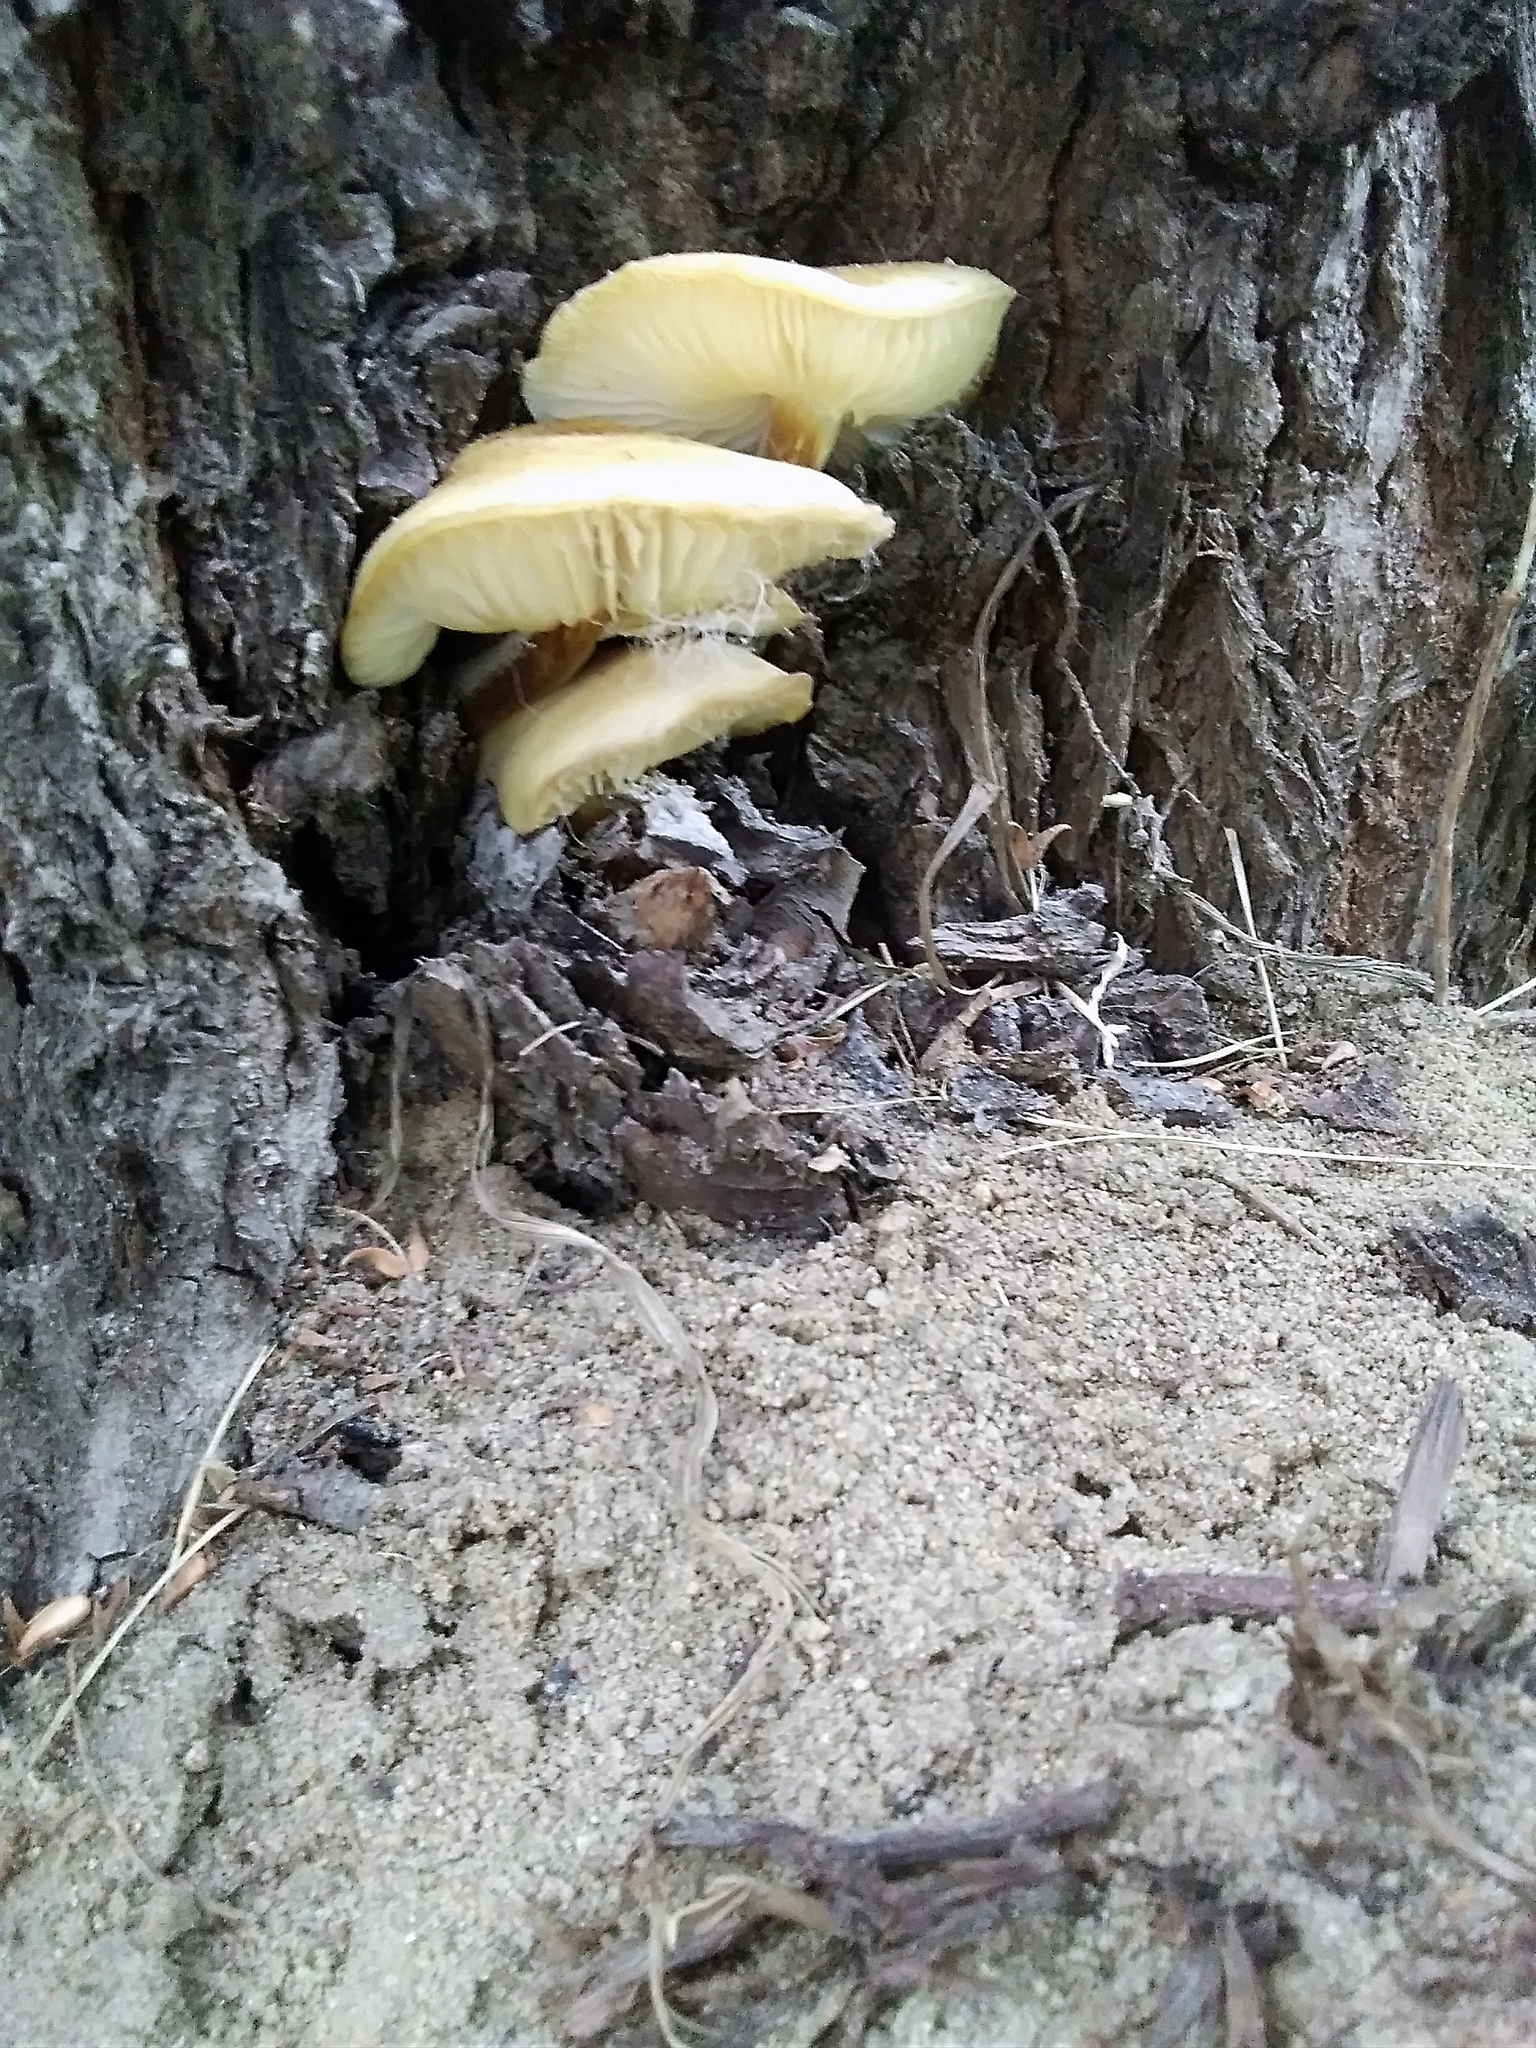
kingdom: Fungi
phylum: Basidiomycota
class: Agaricomycetes
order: Agaricales
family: Physalacriaceae
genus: Flammulina
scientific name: Flammulina rossica
